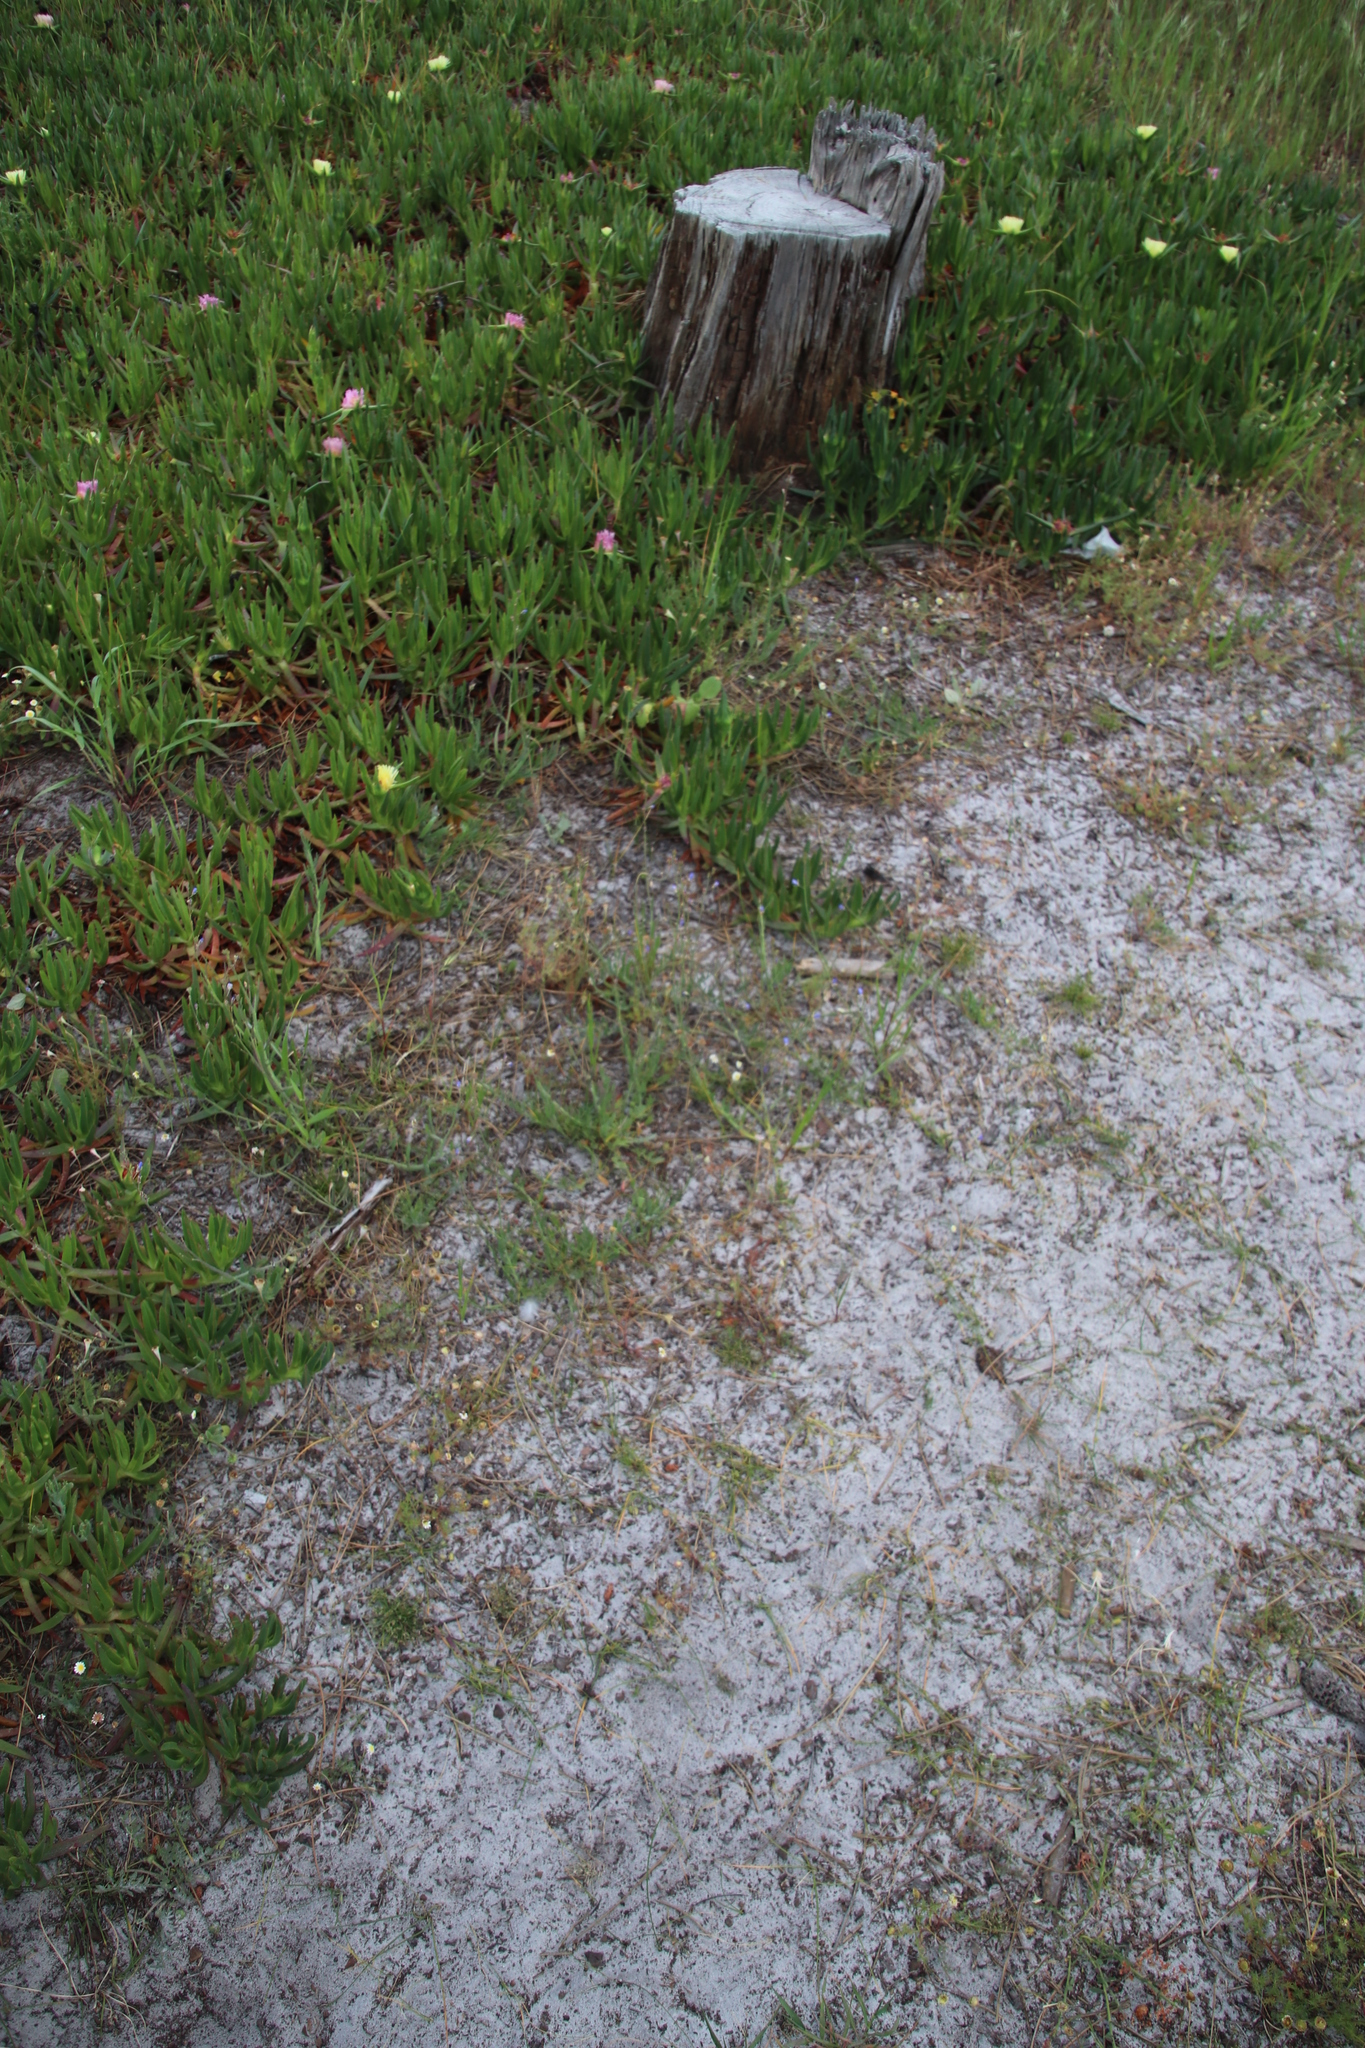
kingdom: Plantae
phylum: Tracheophyta
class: Magnoliopsida
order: Caryophyllales
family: Aizoaceae
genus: Carpobrotus
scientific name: Carpobrotus edulis
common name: Hottentot-fig
